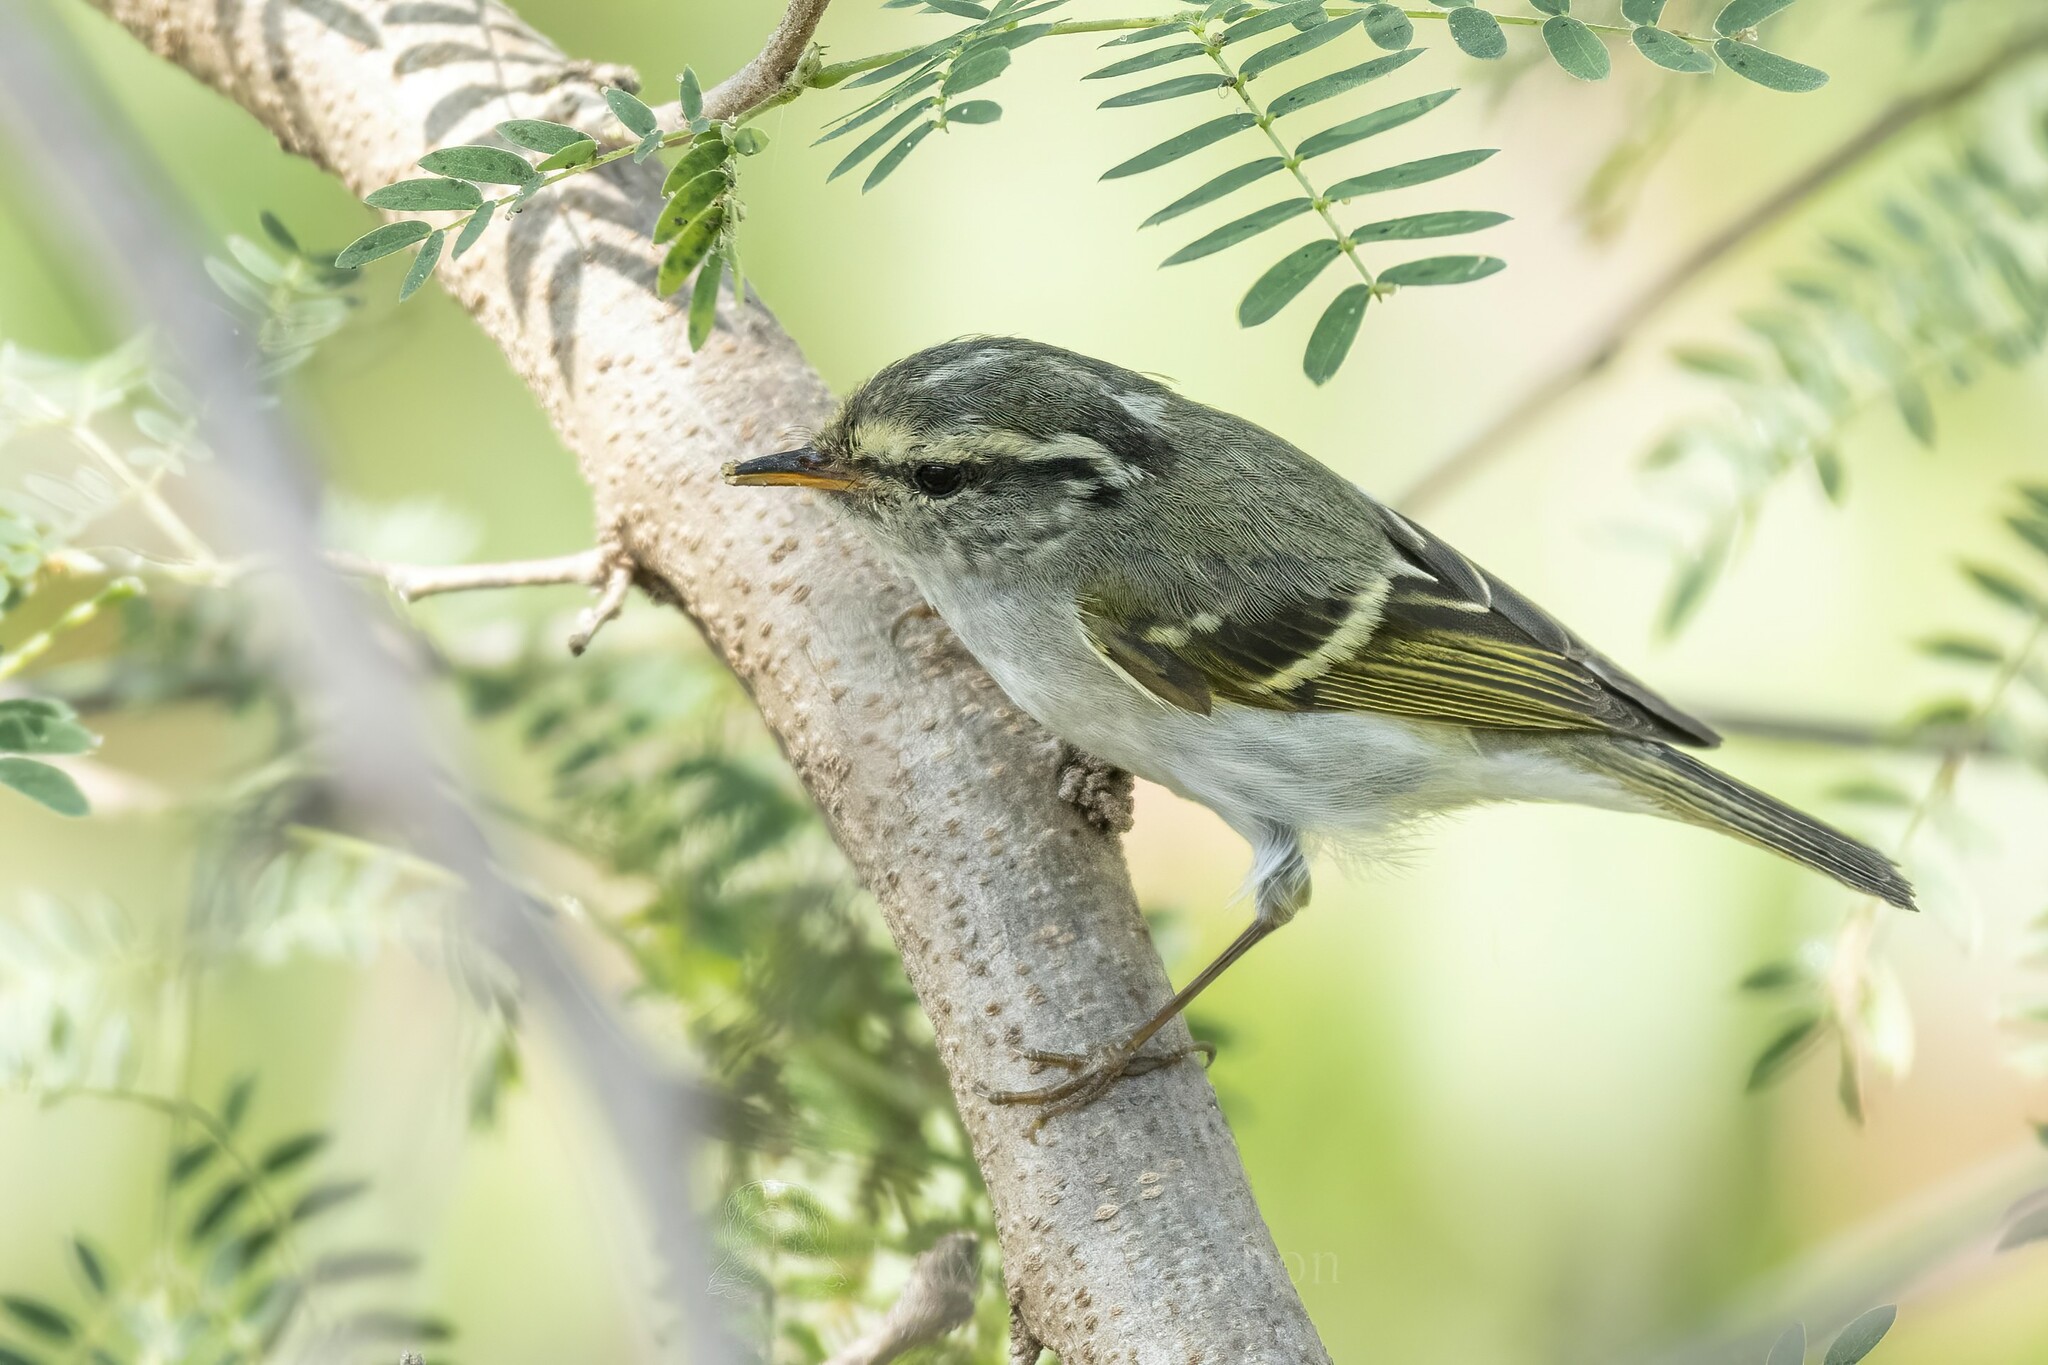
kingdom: Animalia
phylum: Chordata
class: Aves
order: Passeriformes
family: Phylloscopidae
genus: Phylloscopus
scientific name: Phylloscopus inornatus
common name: Yellow-browed warbler
